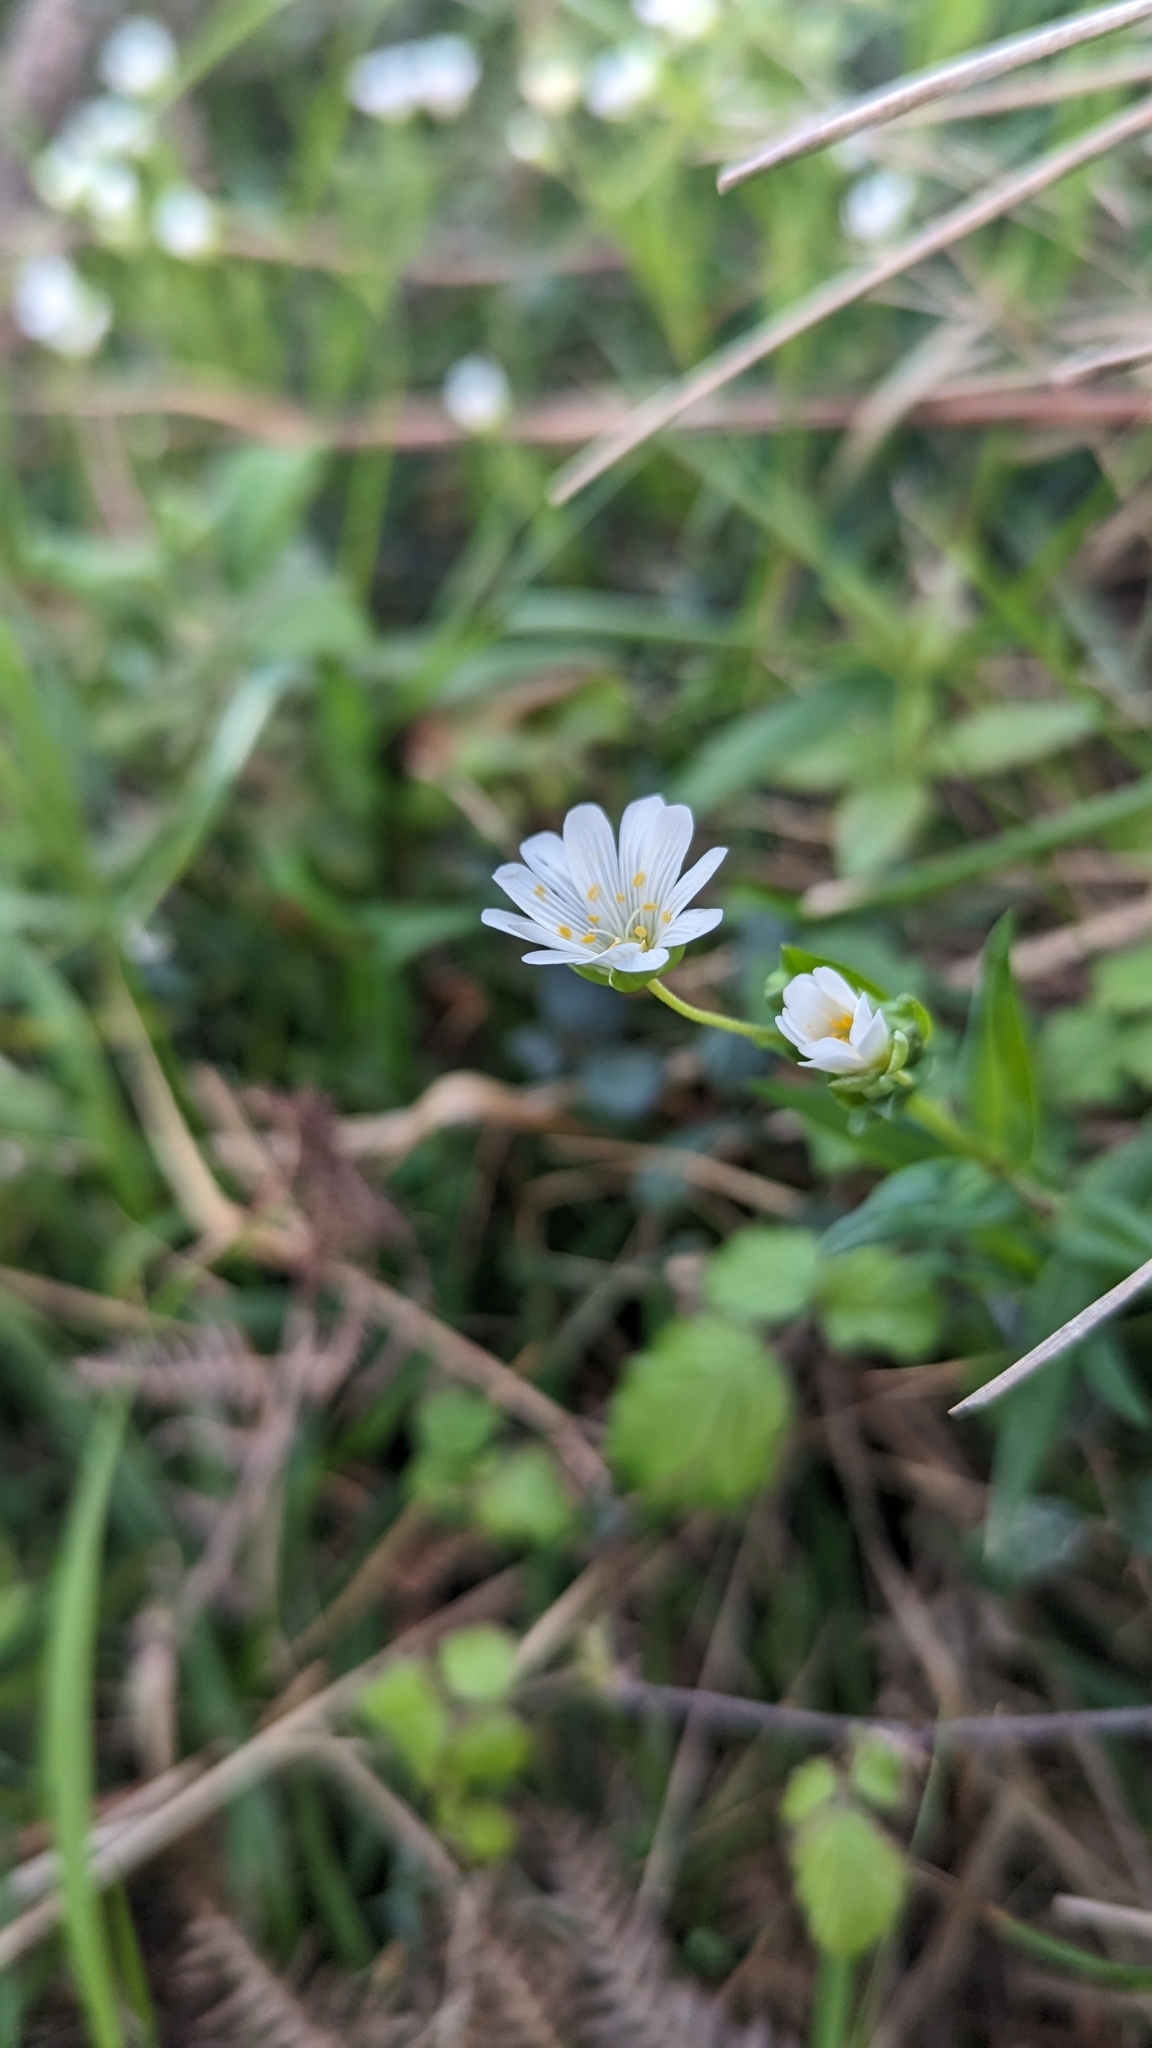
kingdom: Plantae
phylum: Tracheophyta
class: Magnoliopsida
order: Caryophyllales
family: Caryophyllaceae
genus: Rabelera
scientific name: Rabelera holostea
